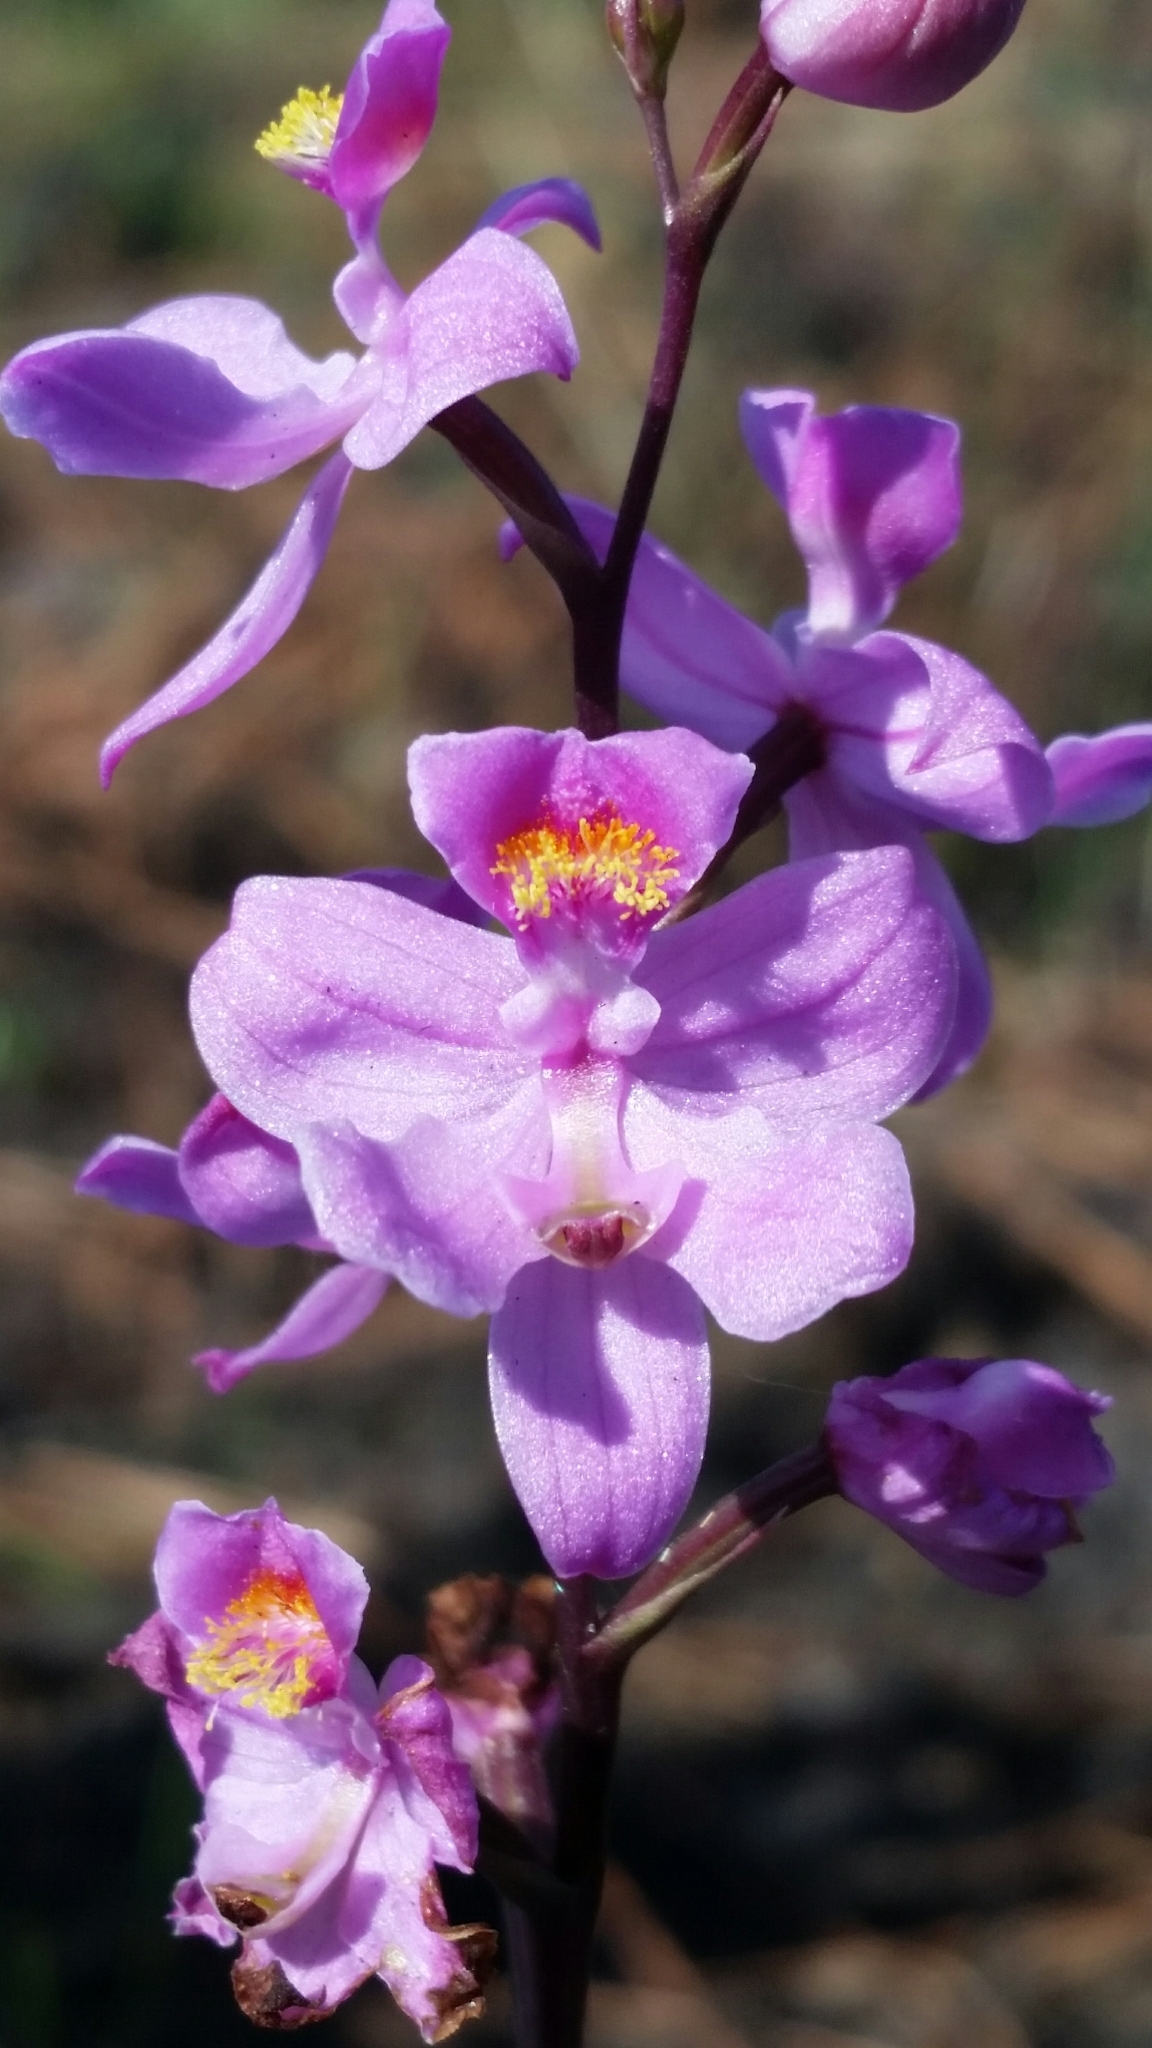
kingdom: Plantae
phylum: Tracheophyta
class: Liliopsida
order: Asparagales
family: Orchidaceae
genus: Calopogon
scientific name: Calopogon multiflorus
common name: Many-flowered grass-pink orchid
